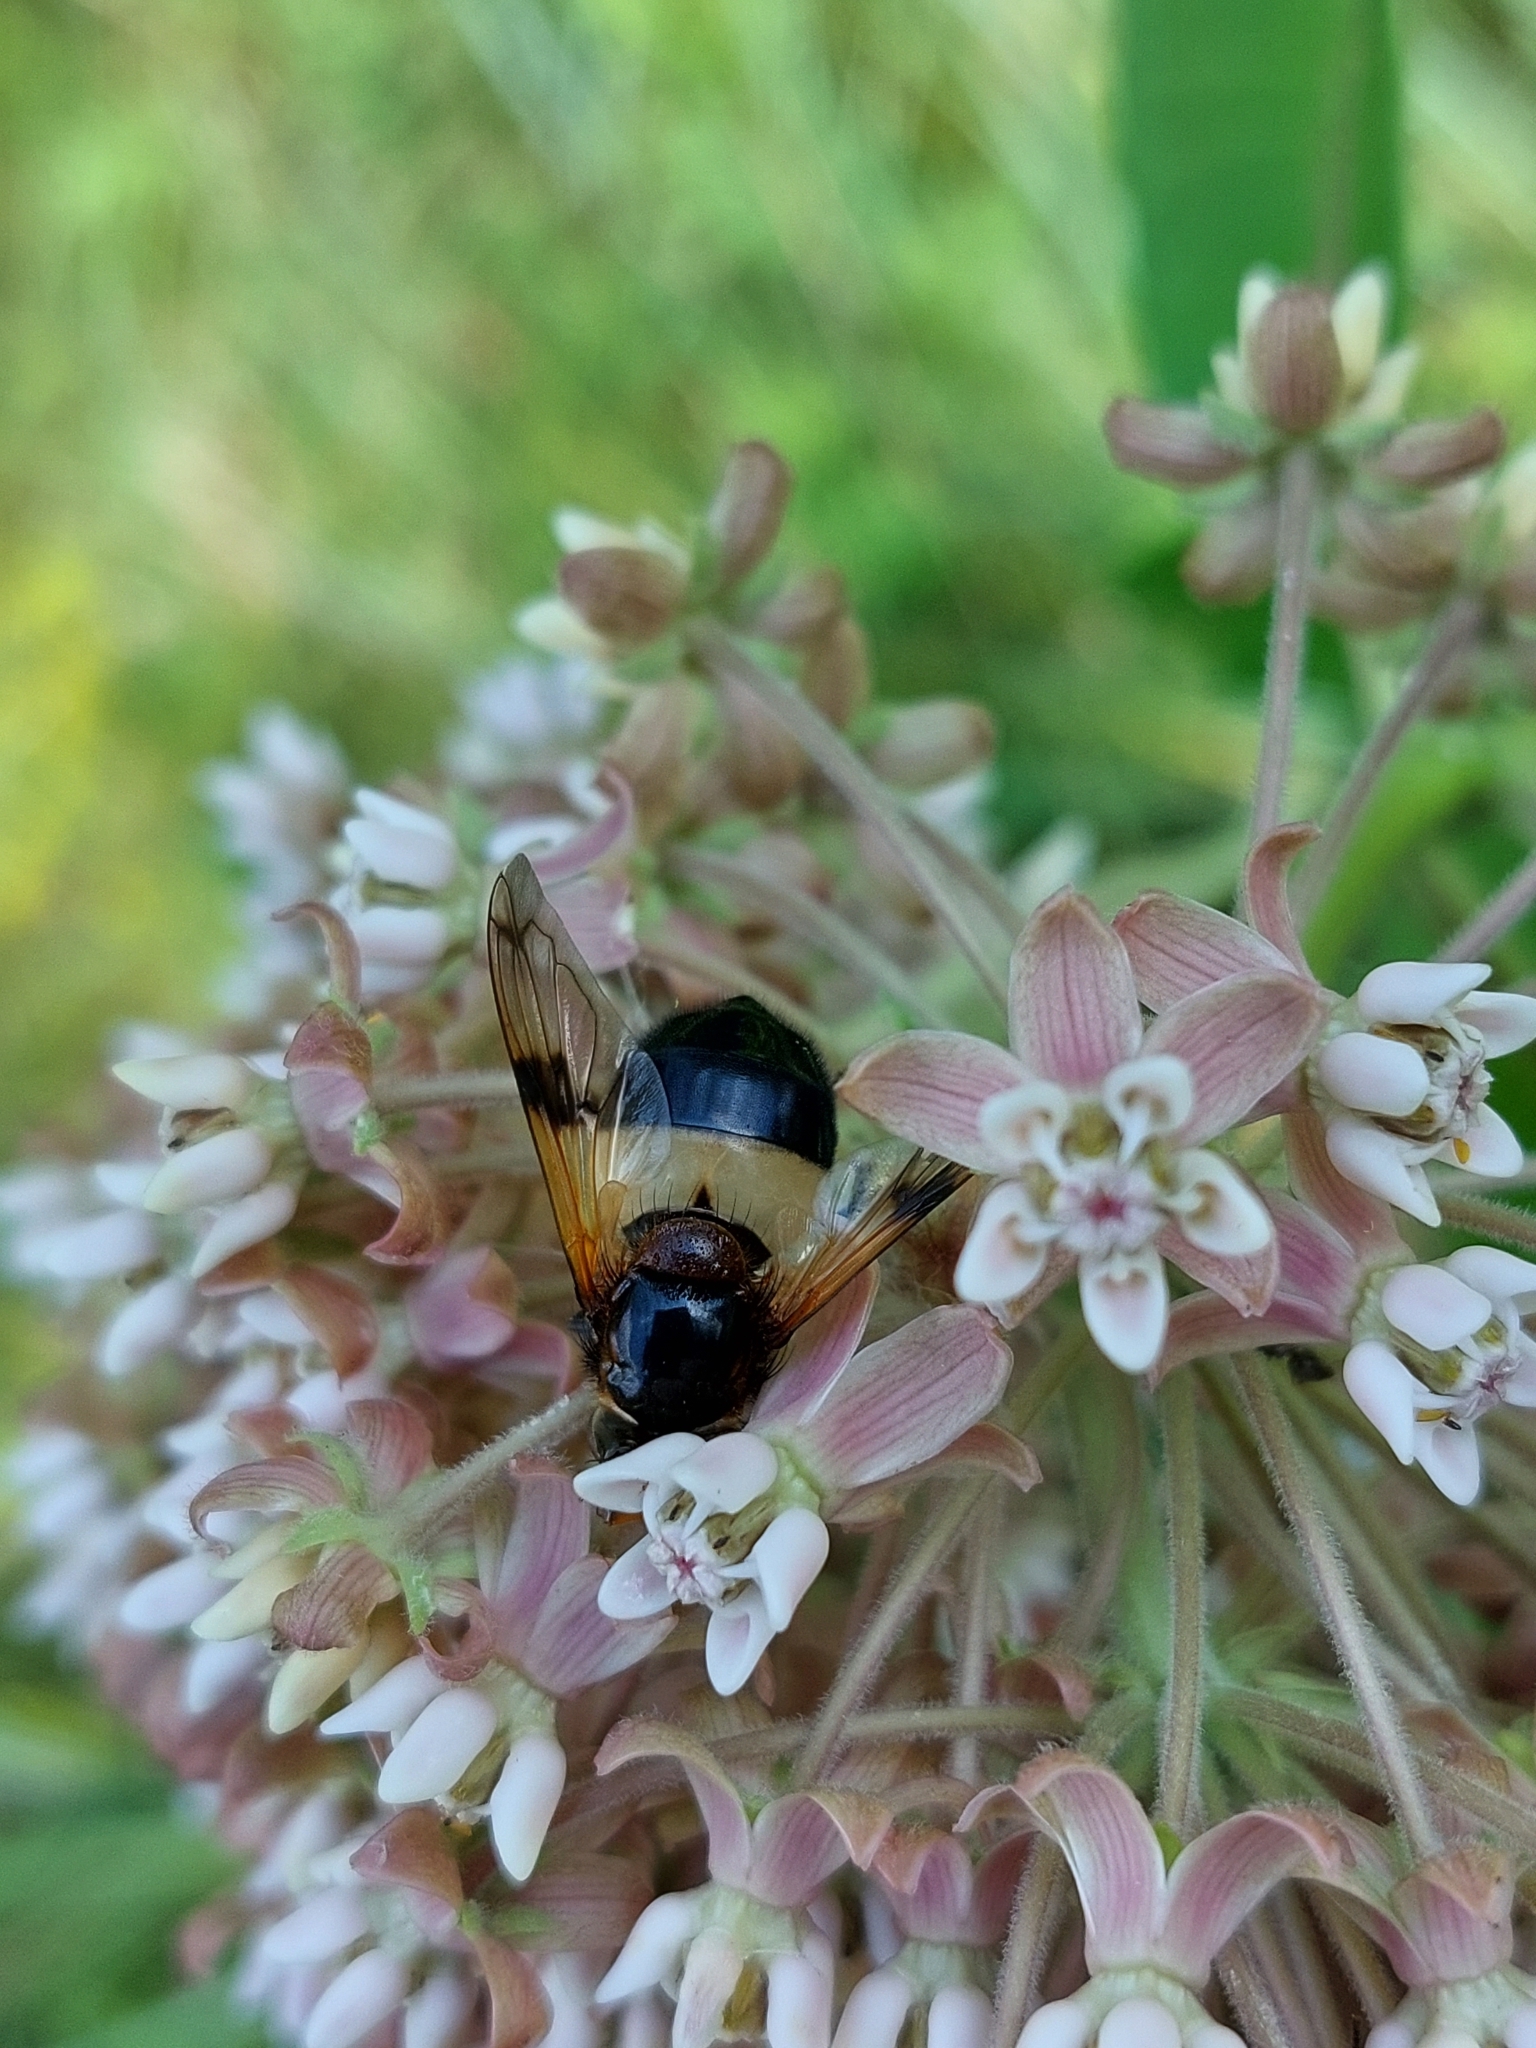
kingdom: Animalia
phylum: Arthropoda
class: Insecta
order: Diptera
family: Syrphidae
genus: Volucella
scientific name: Volucella pellucens
